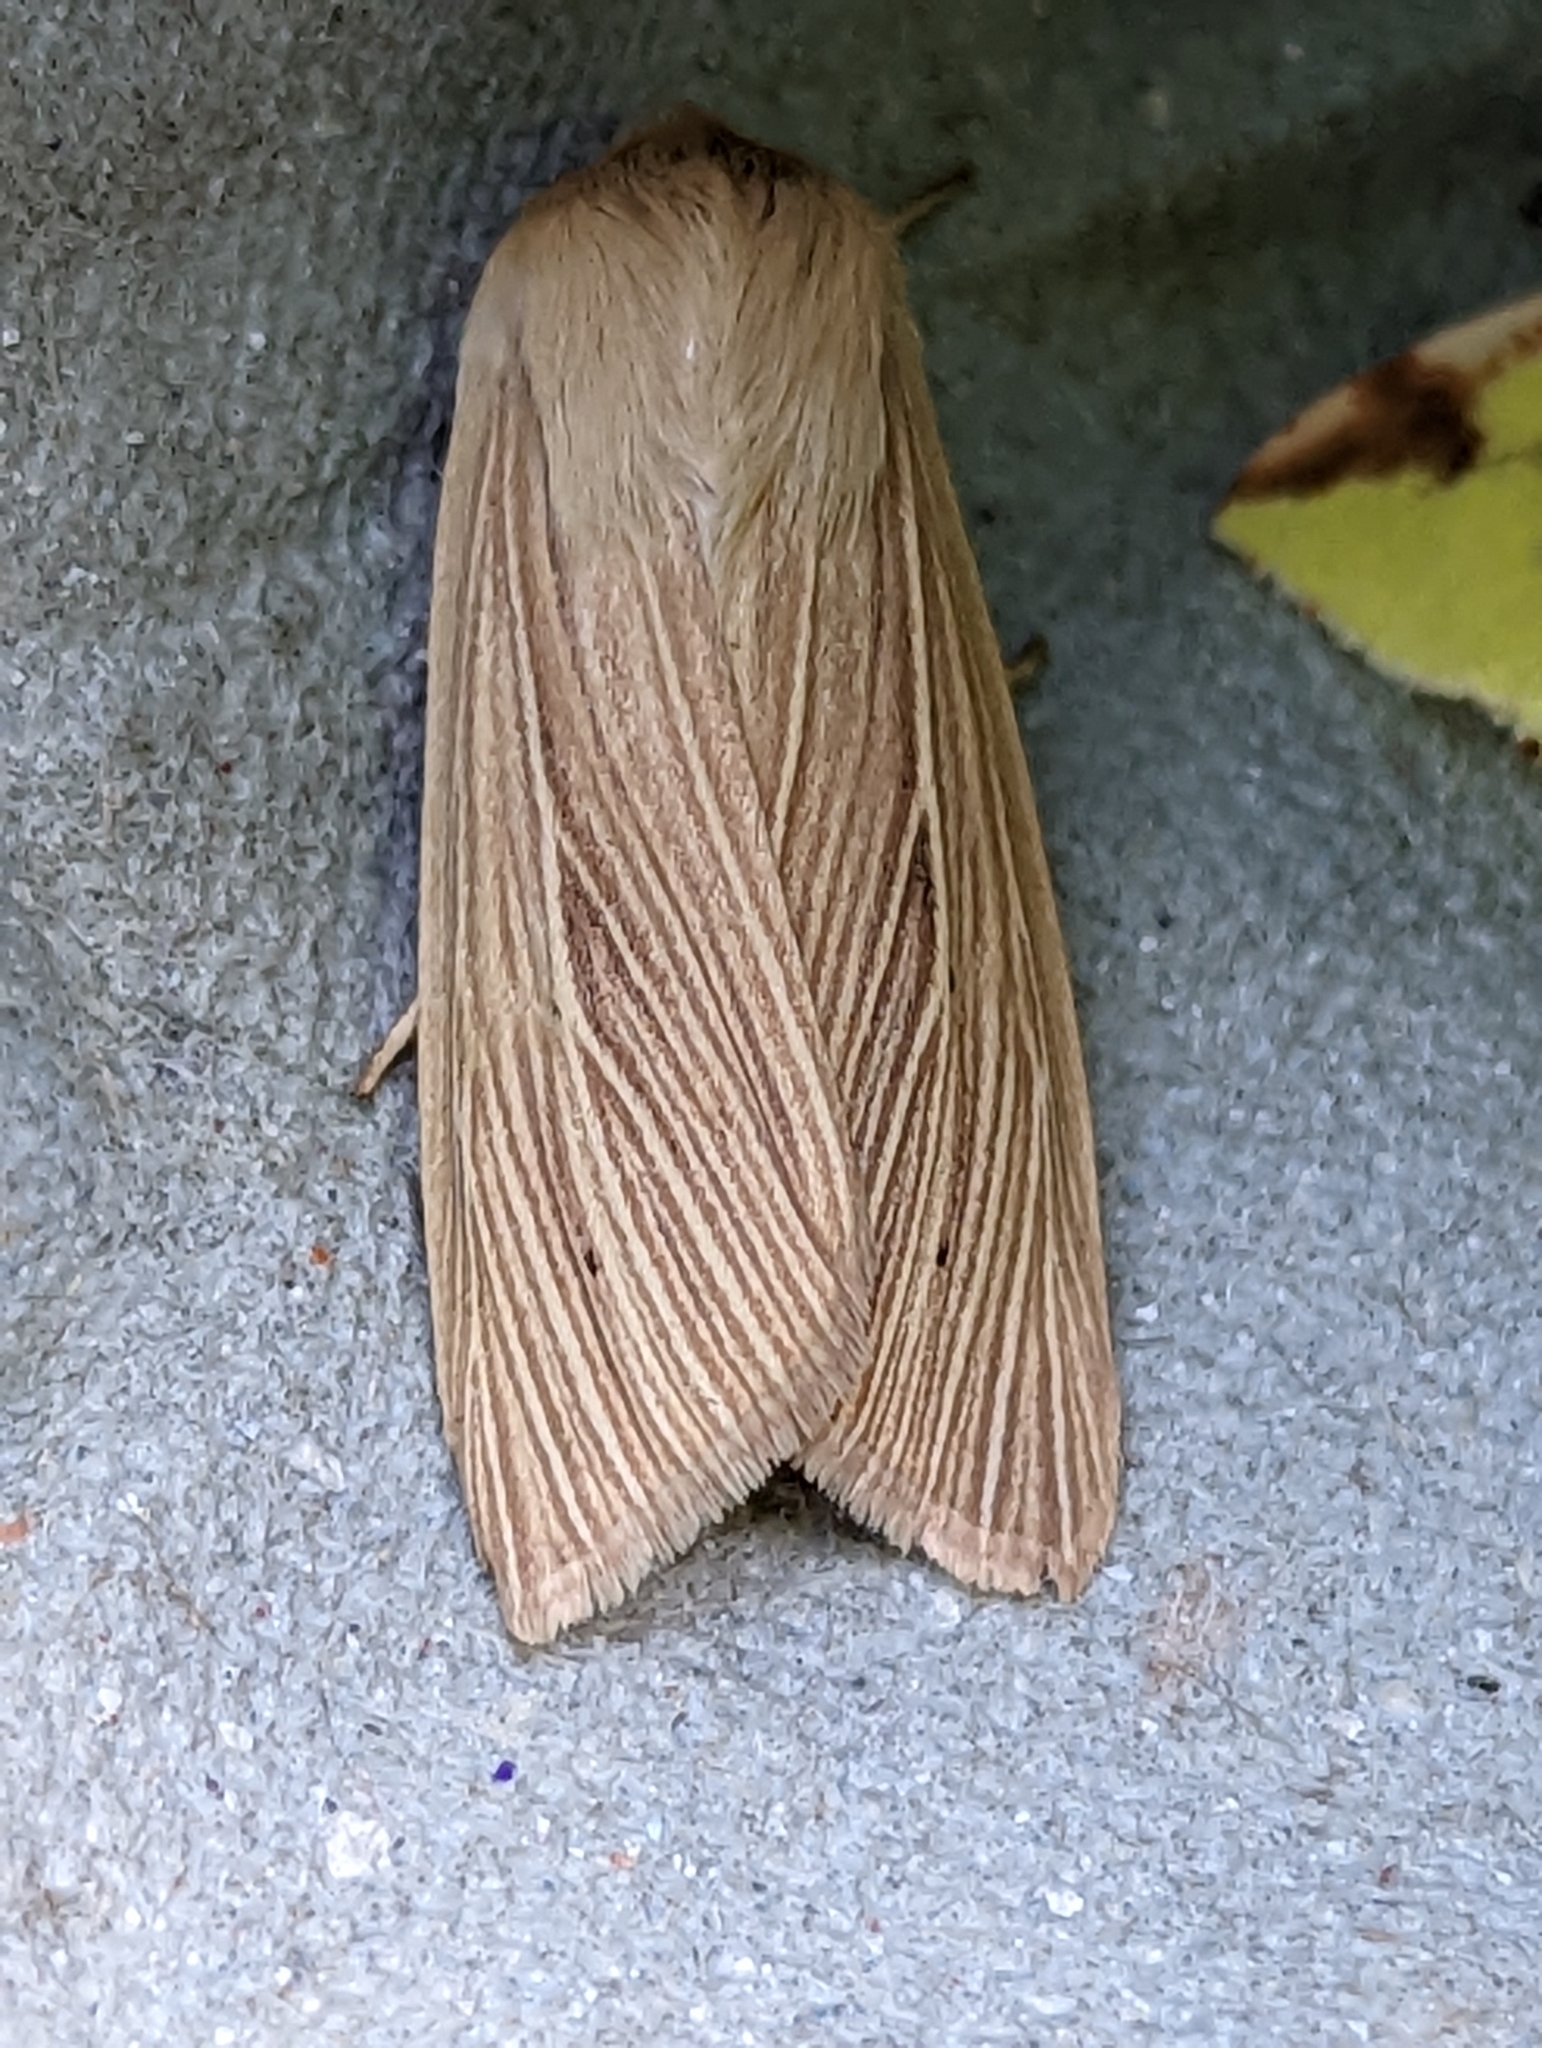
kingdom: Animalia
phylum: Arthropoda
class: Insecta
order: Lepidoptera
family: Noctuidae
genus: Mythimna
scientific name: Mythimna pallens
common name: Common wainscot
